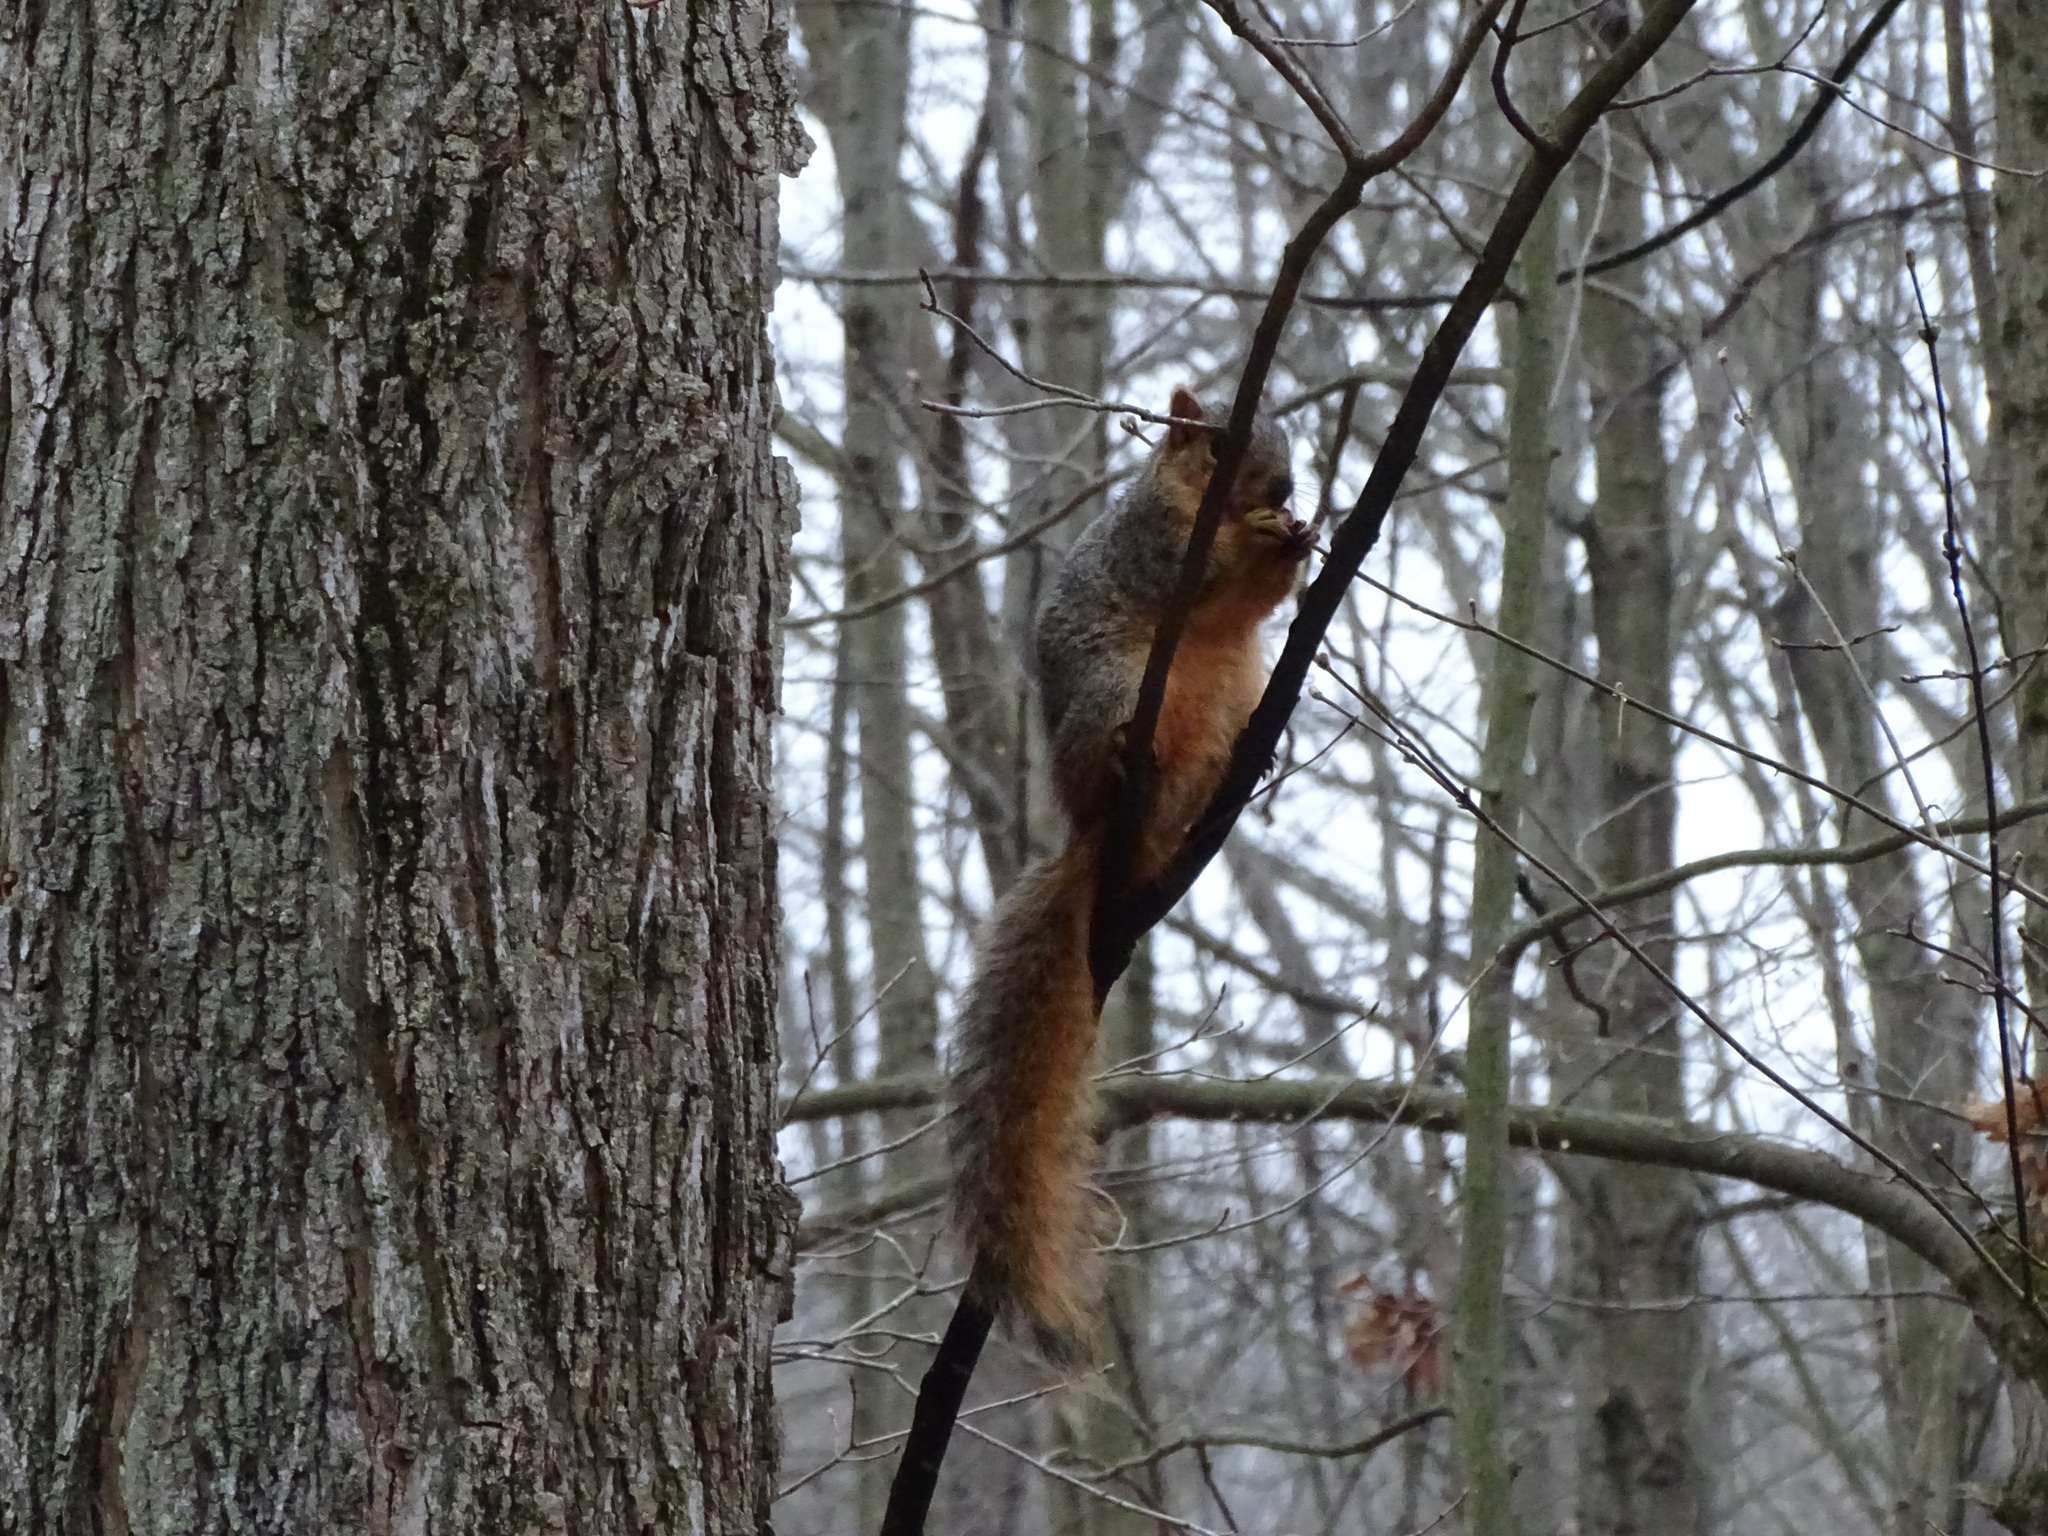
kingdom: Animalia
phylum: Chordata
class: Mammalia
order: Rodentia
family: Sciuridae
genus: Sciurus
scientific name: Sciurus niger
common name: Fox squirrel
